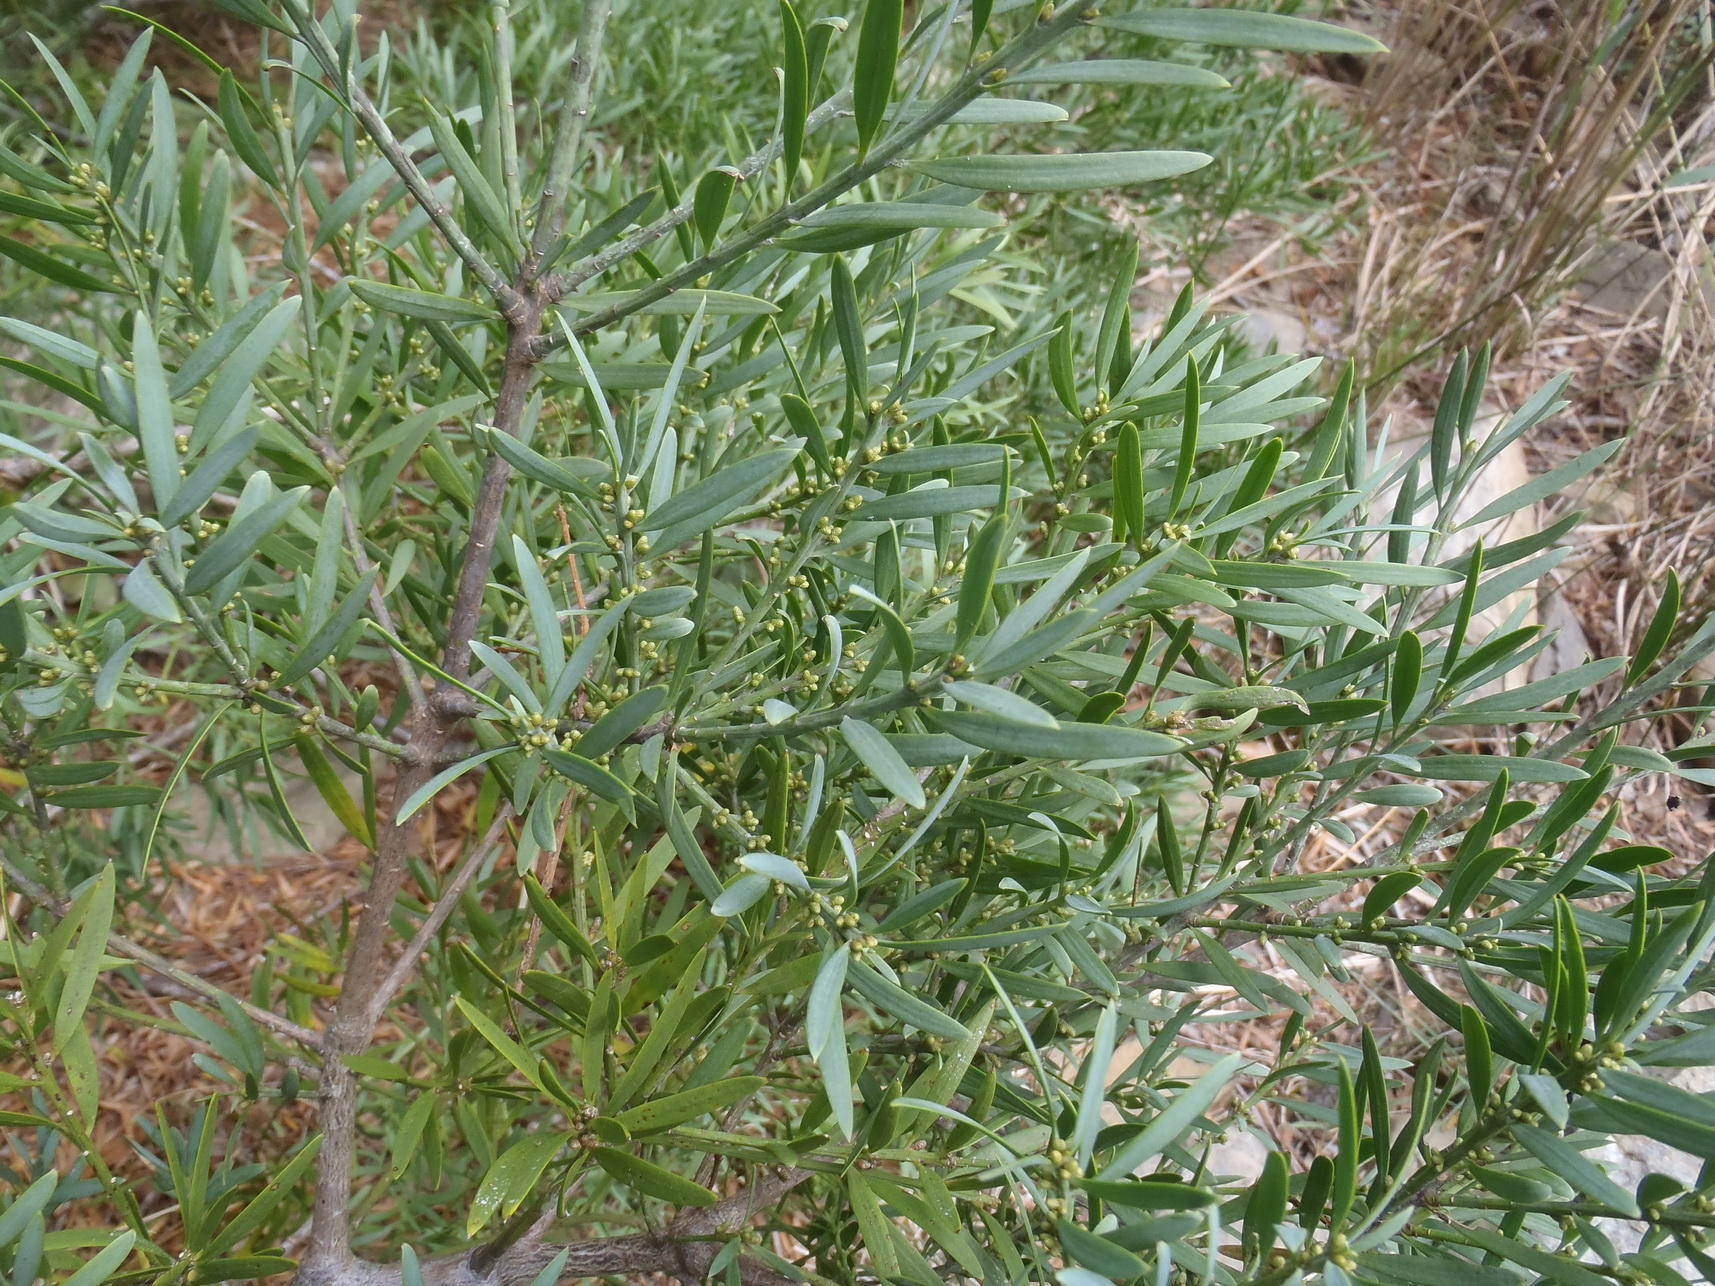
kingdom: Plantae
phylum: Tracheophyta
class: Pinopsida
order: Pinales
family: Podocarpaceae
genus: Afrocarpus
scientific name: Afrocarpus falcatus
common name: Bastard yellowwood
